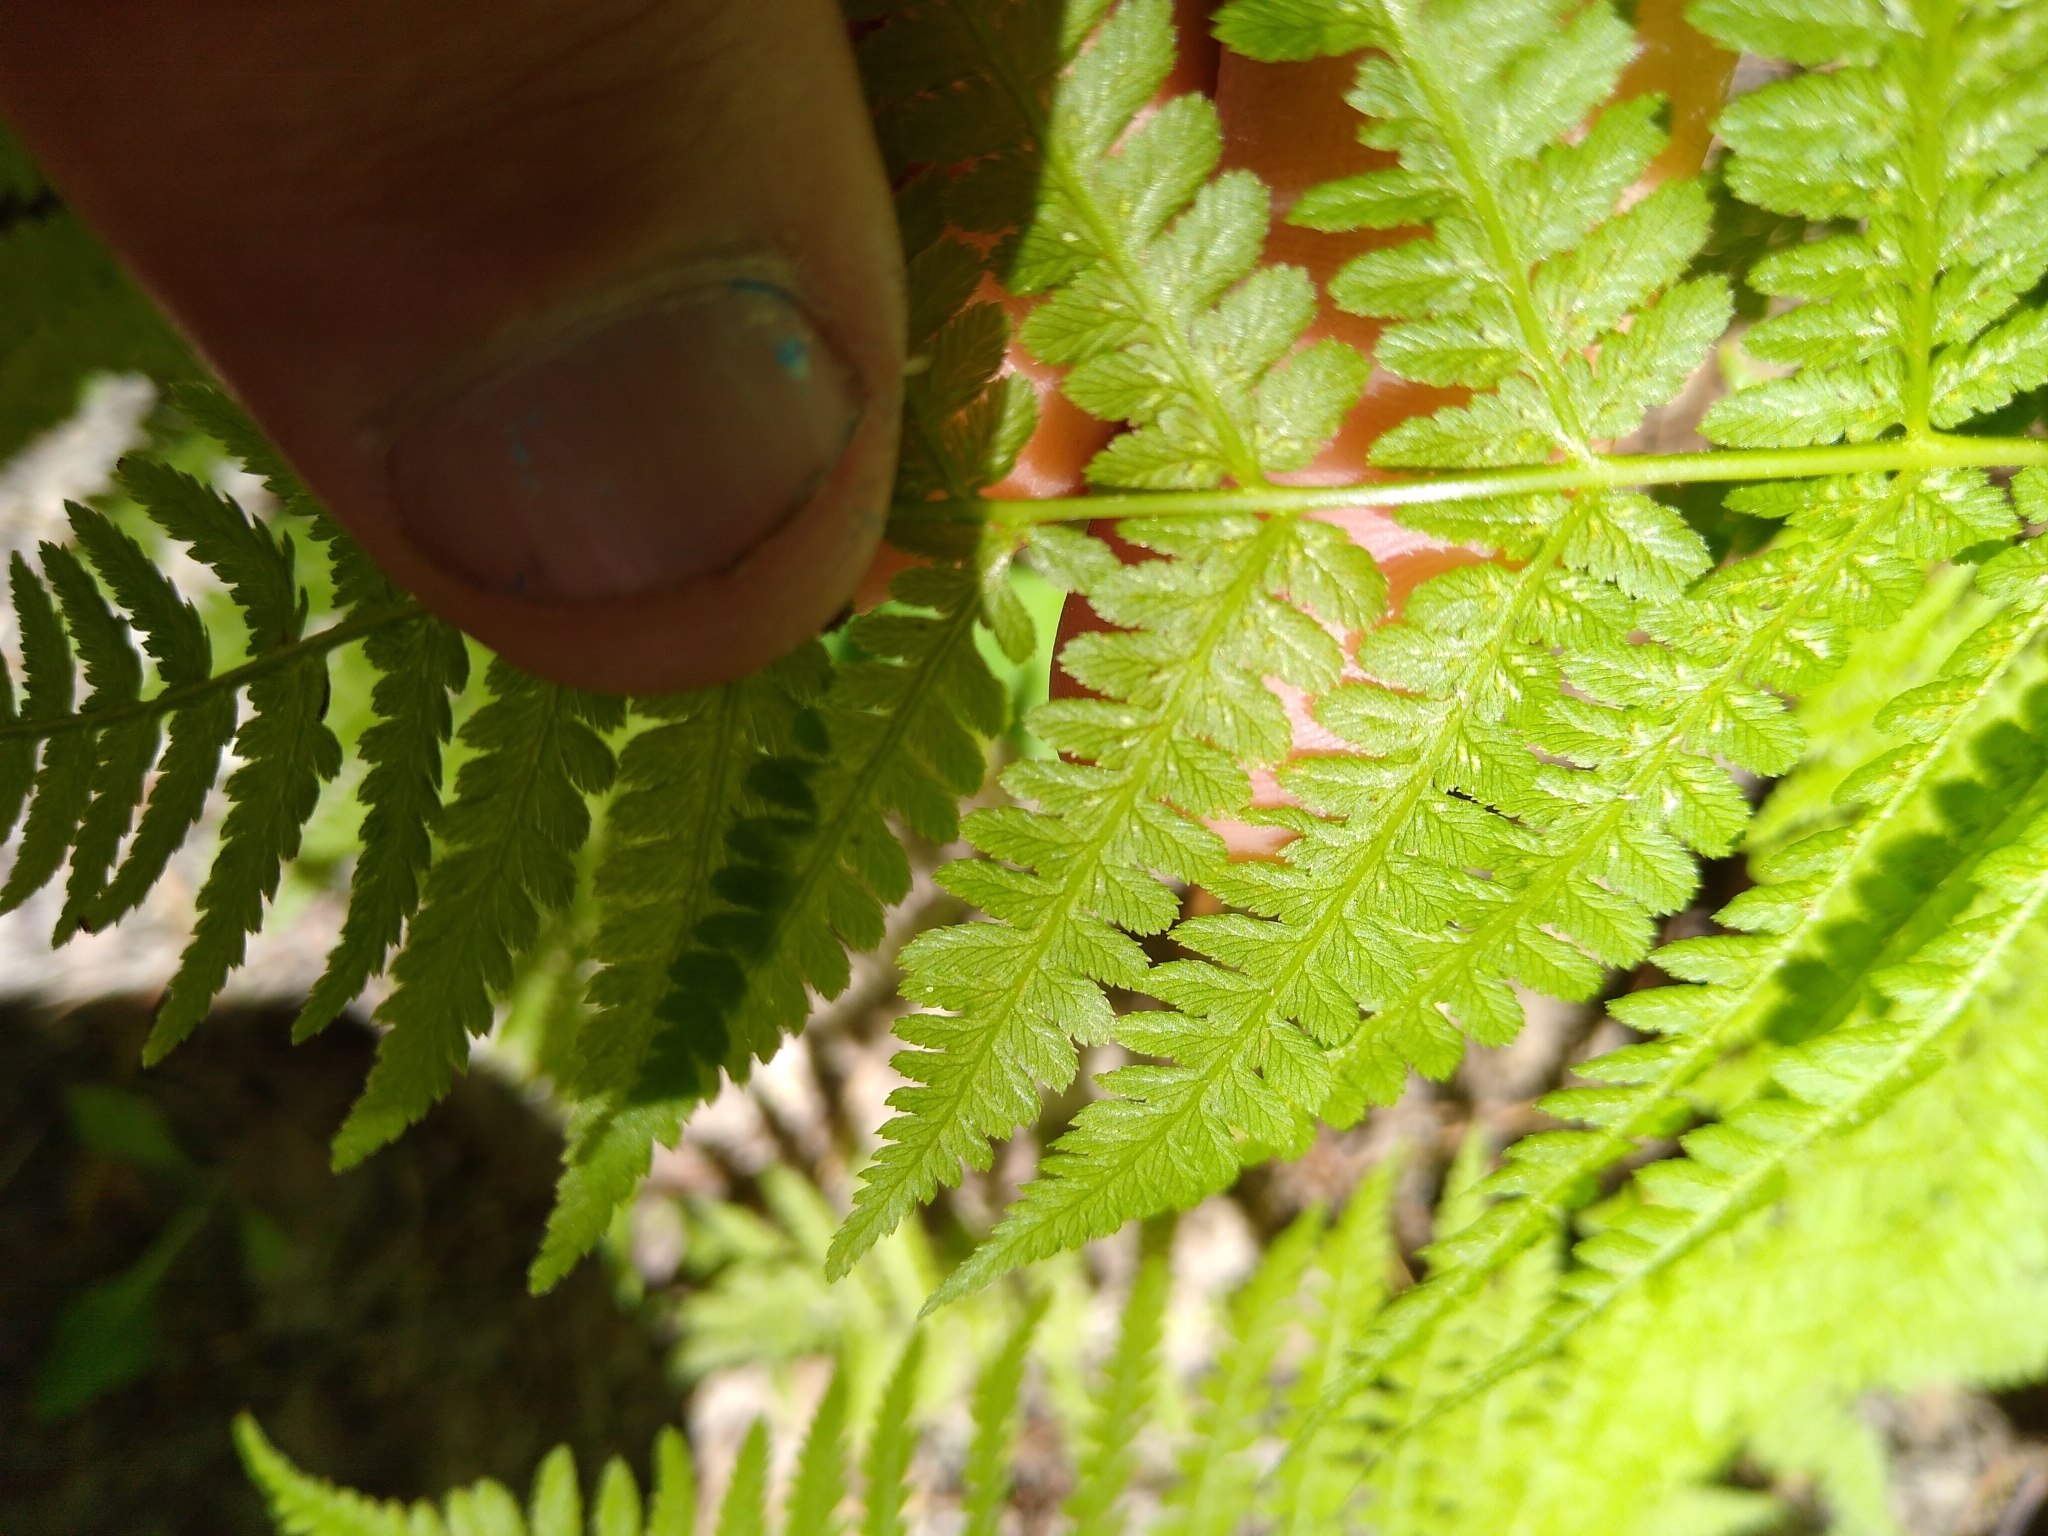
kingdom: Plantae
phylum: Tracheophyta
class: Polypodiopsida
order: Polypodiales
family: Athyriaceae
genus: Athyrium
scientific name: Athyrium angustum
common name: Northern lady fern
